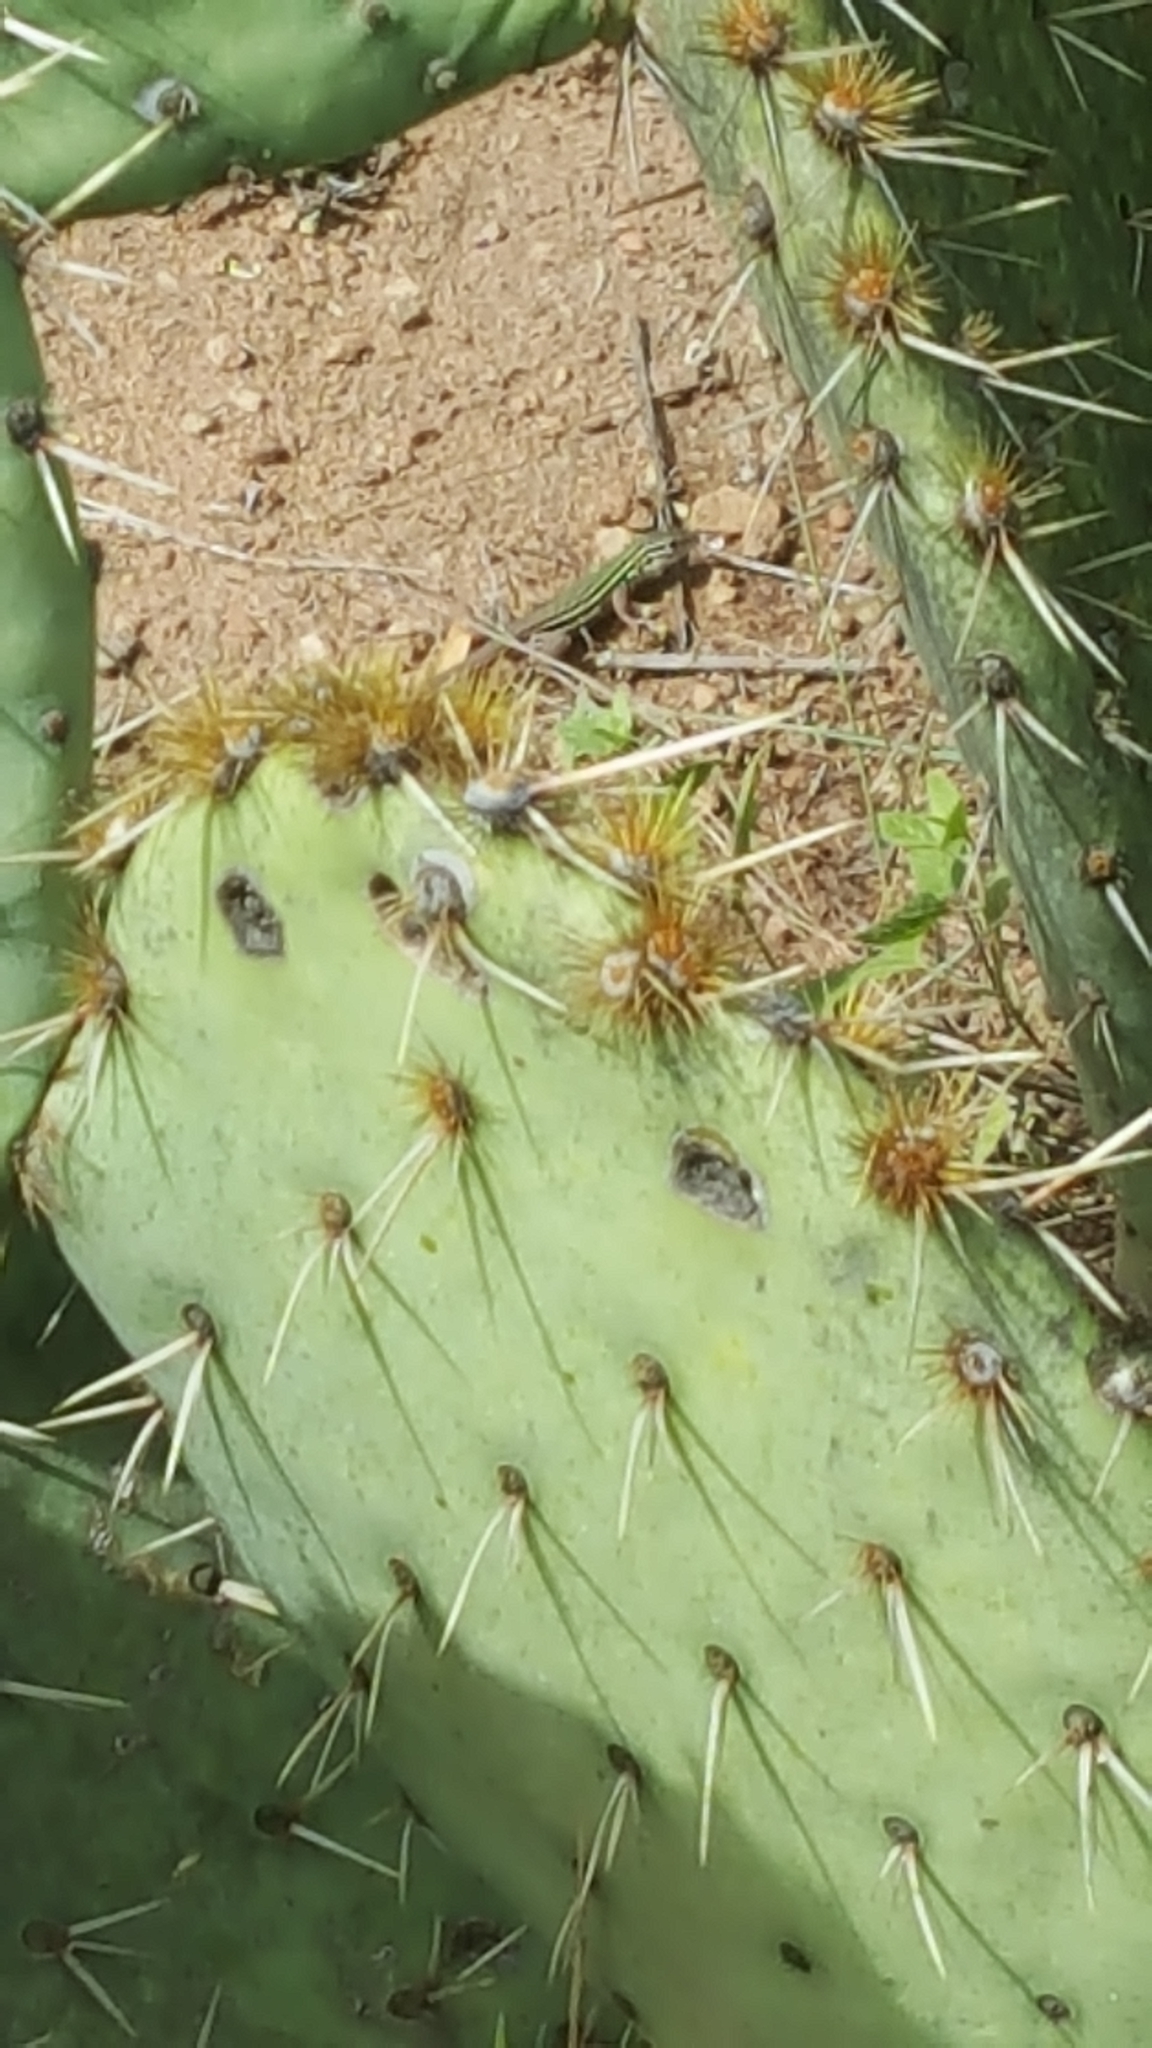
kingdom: Animalia
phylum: Chordata
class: Squamata
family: Teiidae
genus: Aspidoscelis
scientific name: Aspidoscelis gularis
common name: Eastern spotted whiptail
